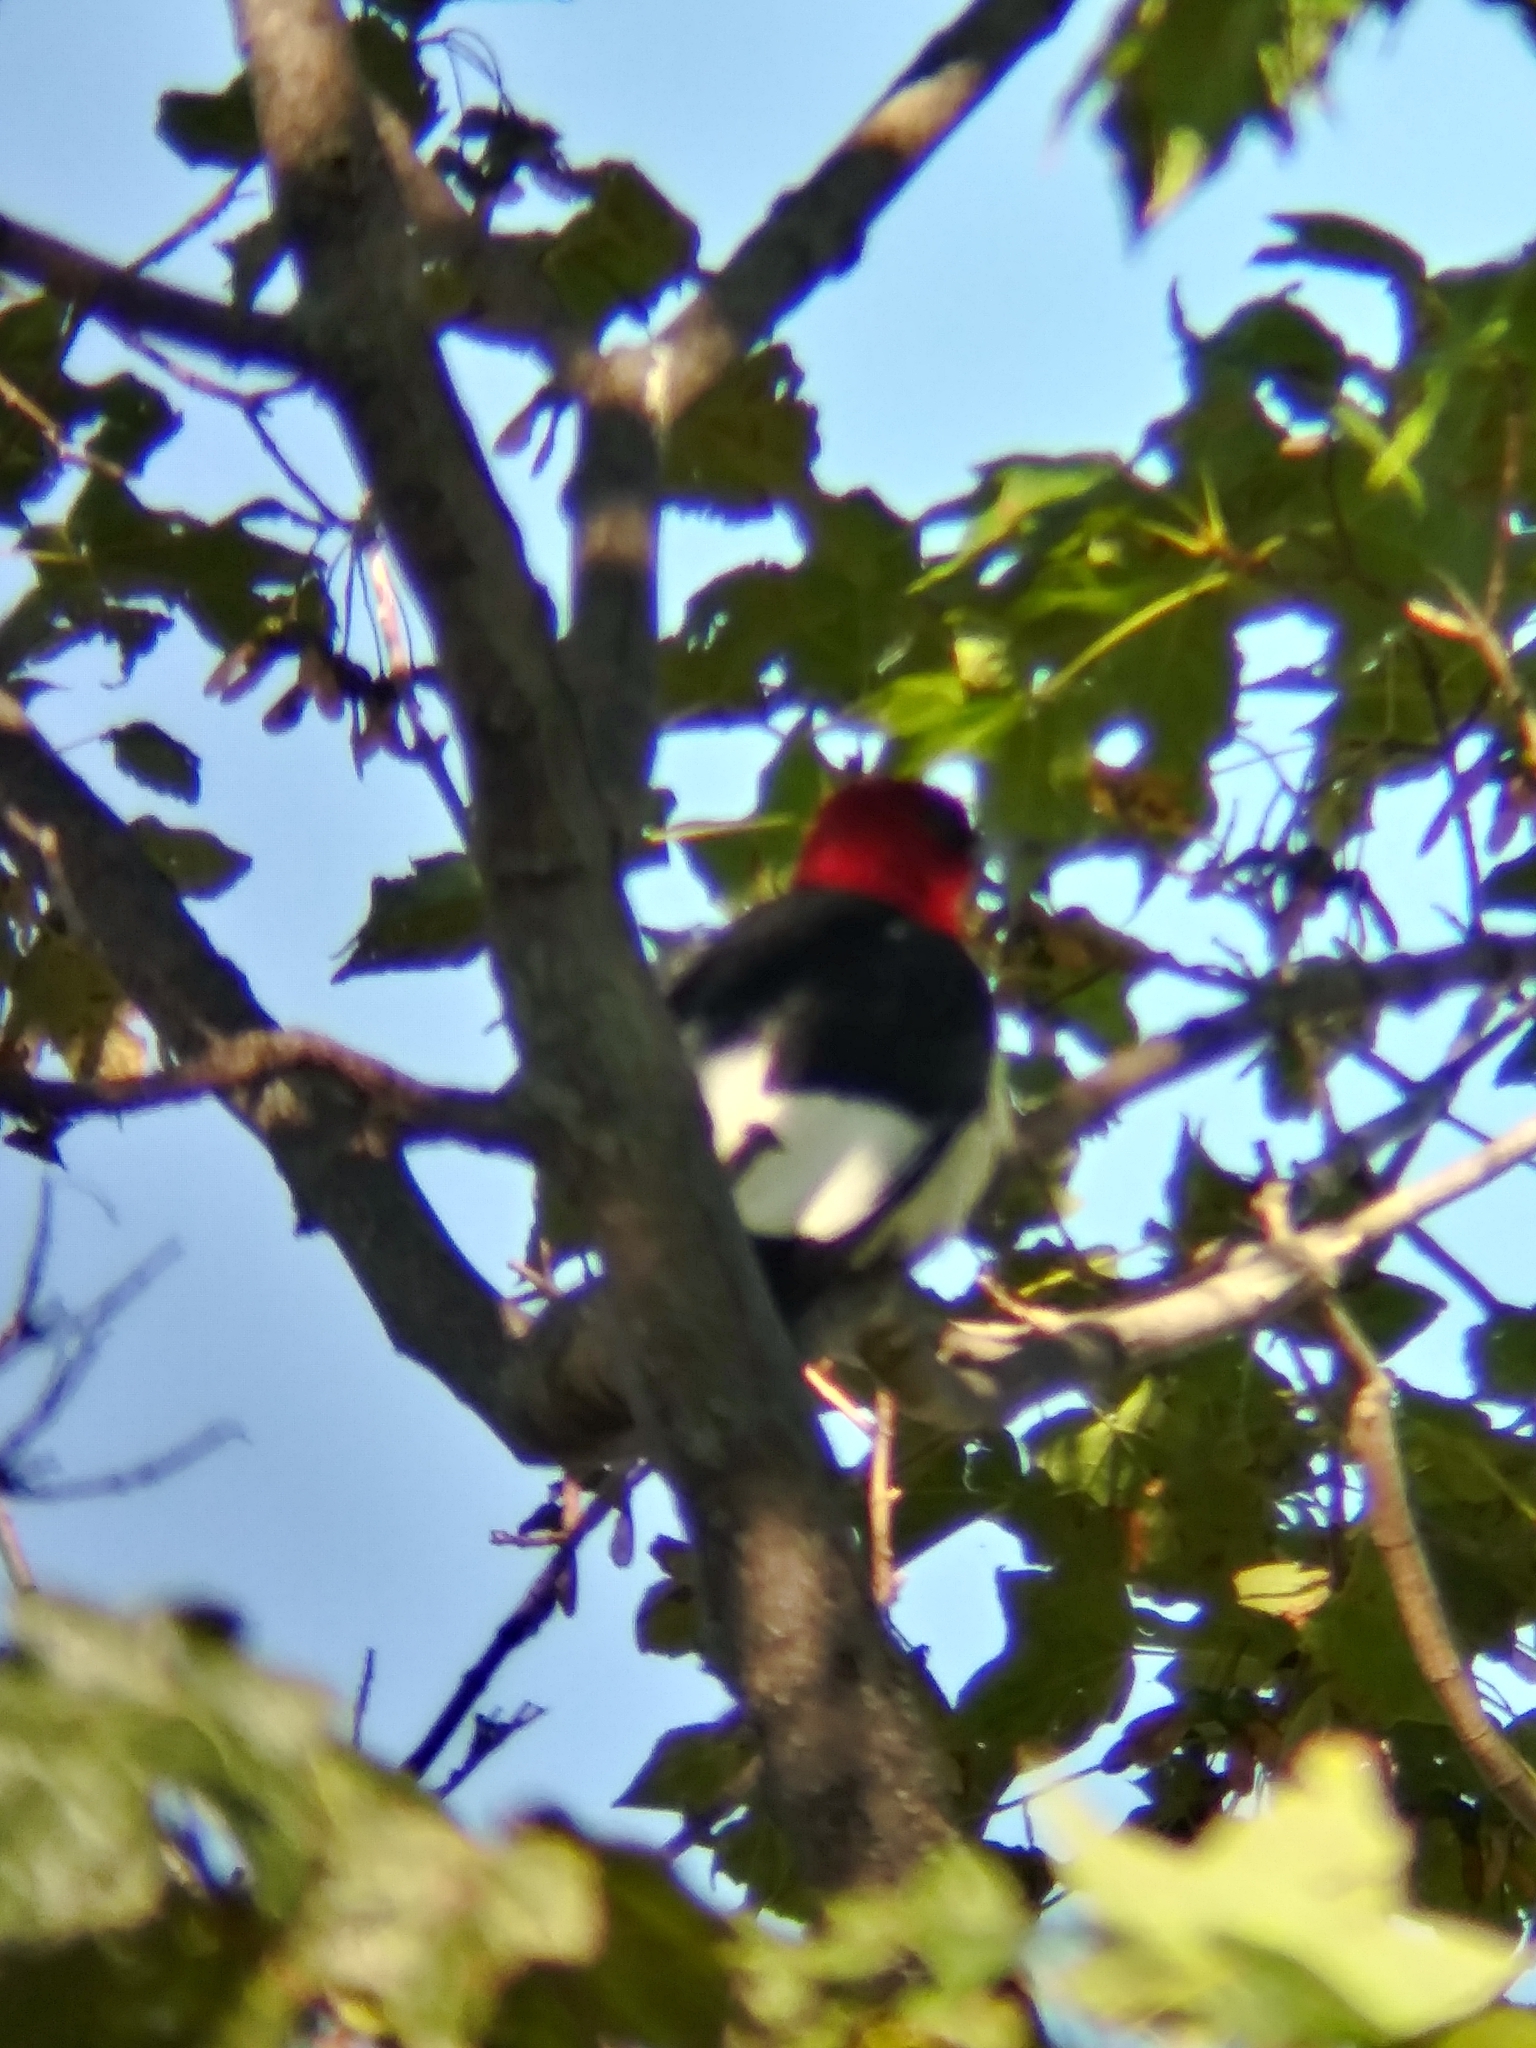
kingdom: Animalia
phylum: Chordata
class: Aves
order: Piciformes
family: Picidae
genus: Melanerpes
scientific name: Melanerpes erythrocephalus
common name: Red-headed woodpecker
